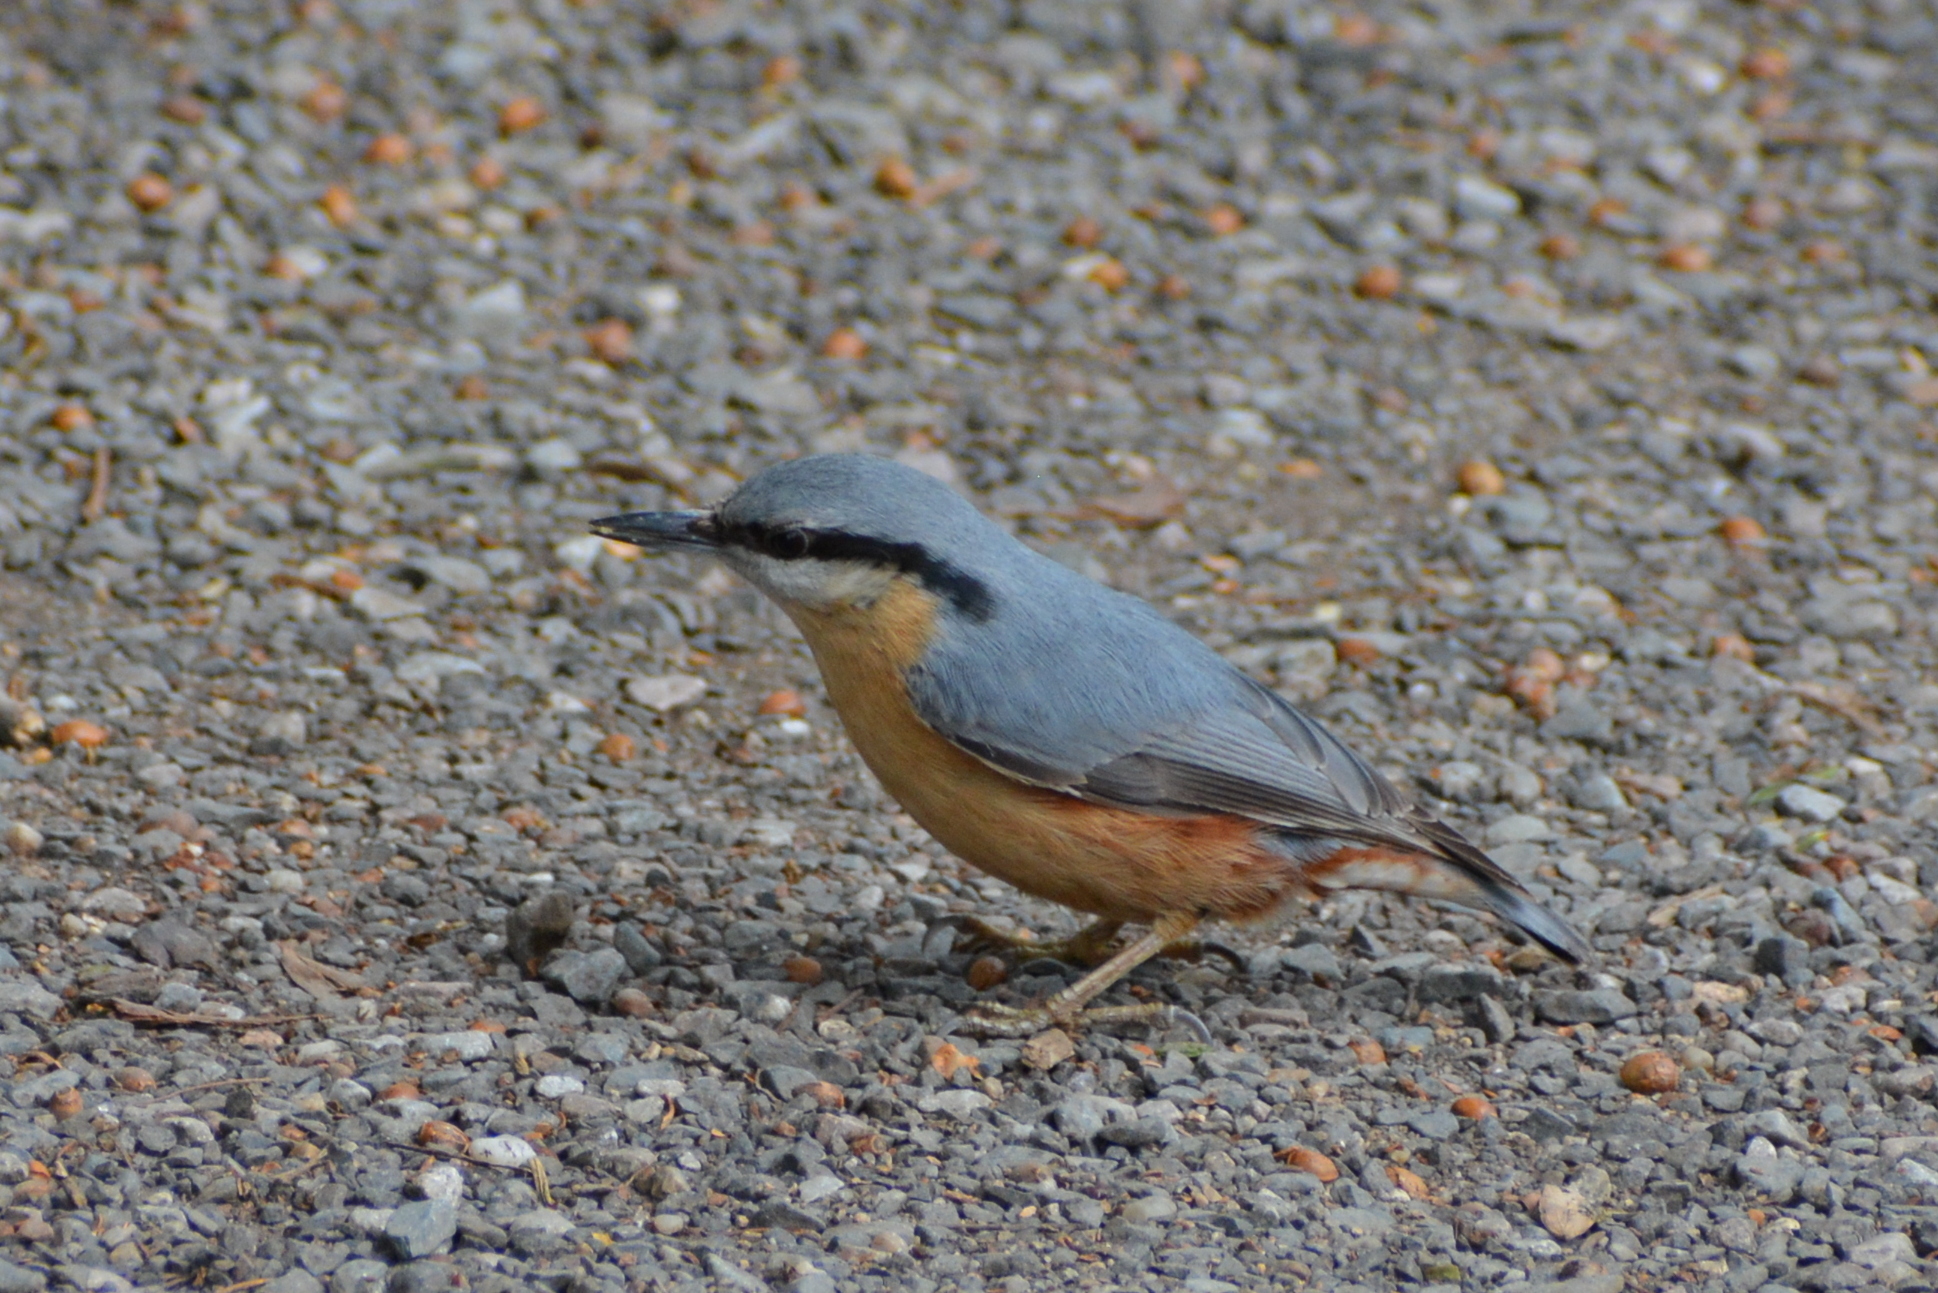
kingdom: Animalia
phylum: Chordata
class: Aves
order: Passeriformes
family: Sittidae
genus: Sitta
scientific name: Sitta europaea
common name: Eurasian nuthatch
